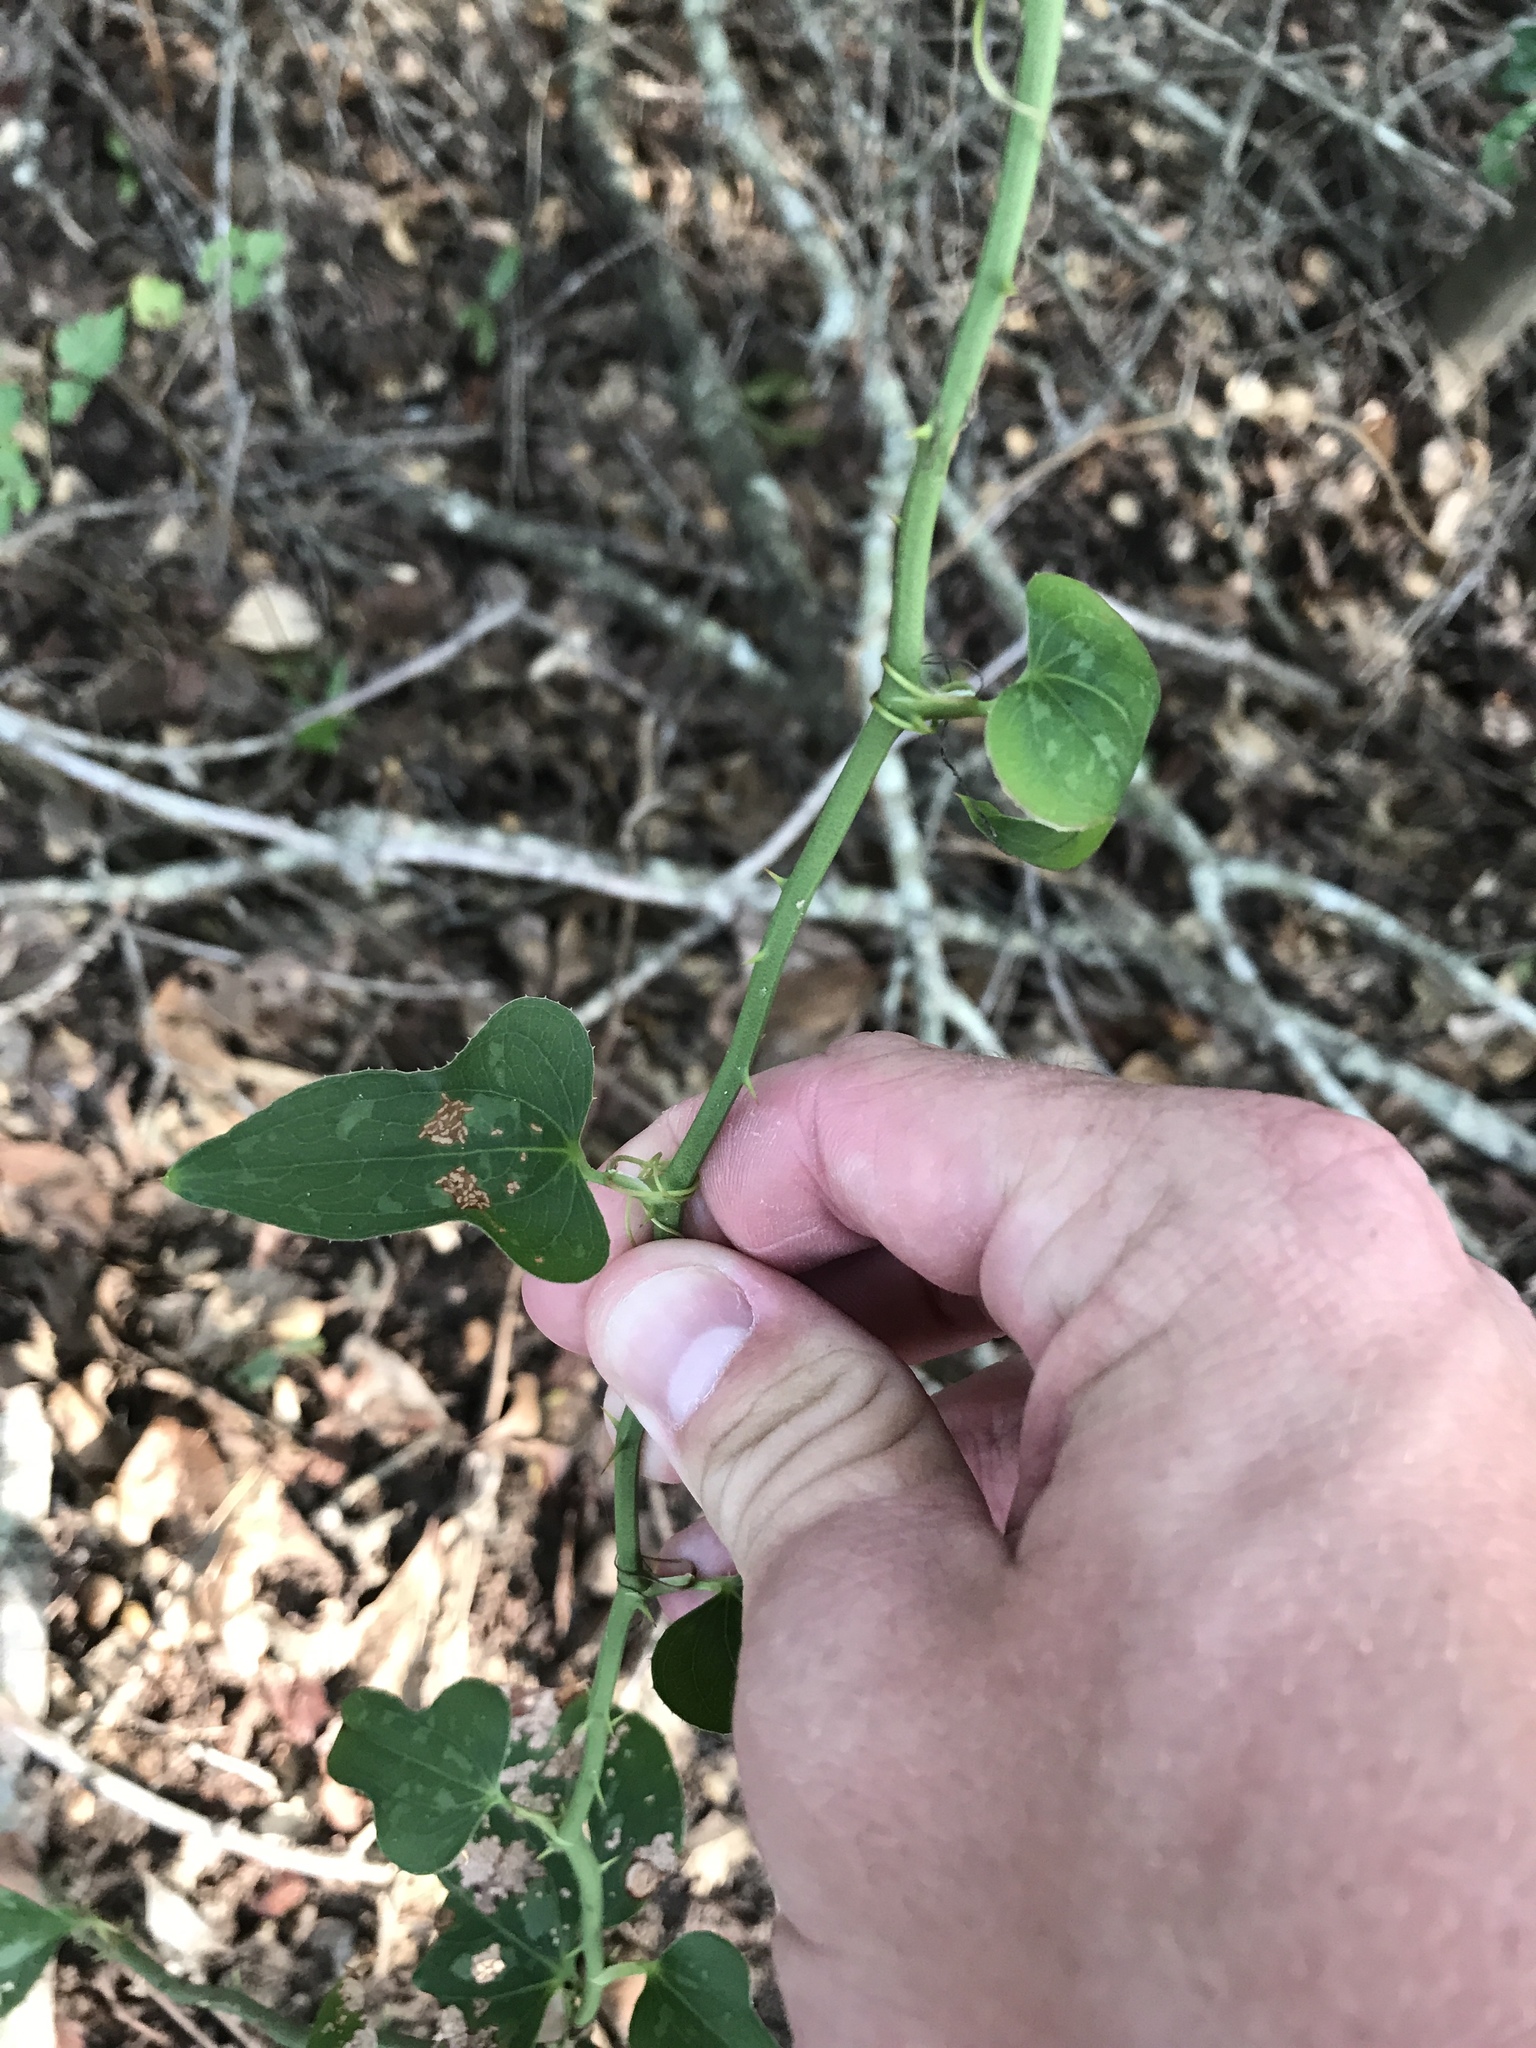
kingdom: Plantae
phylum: Tracheophyta
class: Liliopsida
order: Liliales
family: Smilacaceae
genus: Smilax
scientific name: Smilax bona-nox
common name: Catbrier
